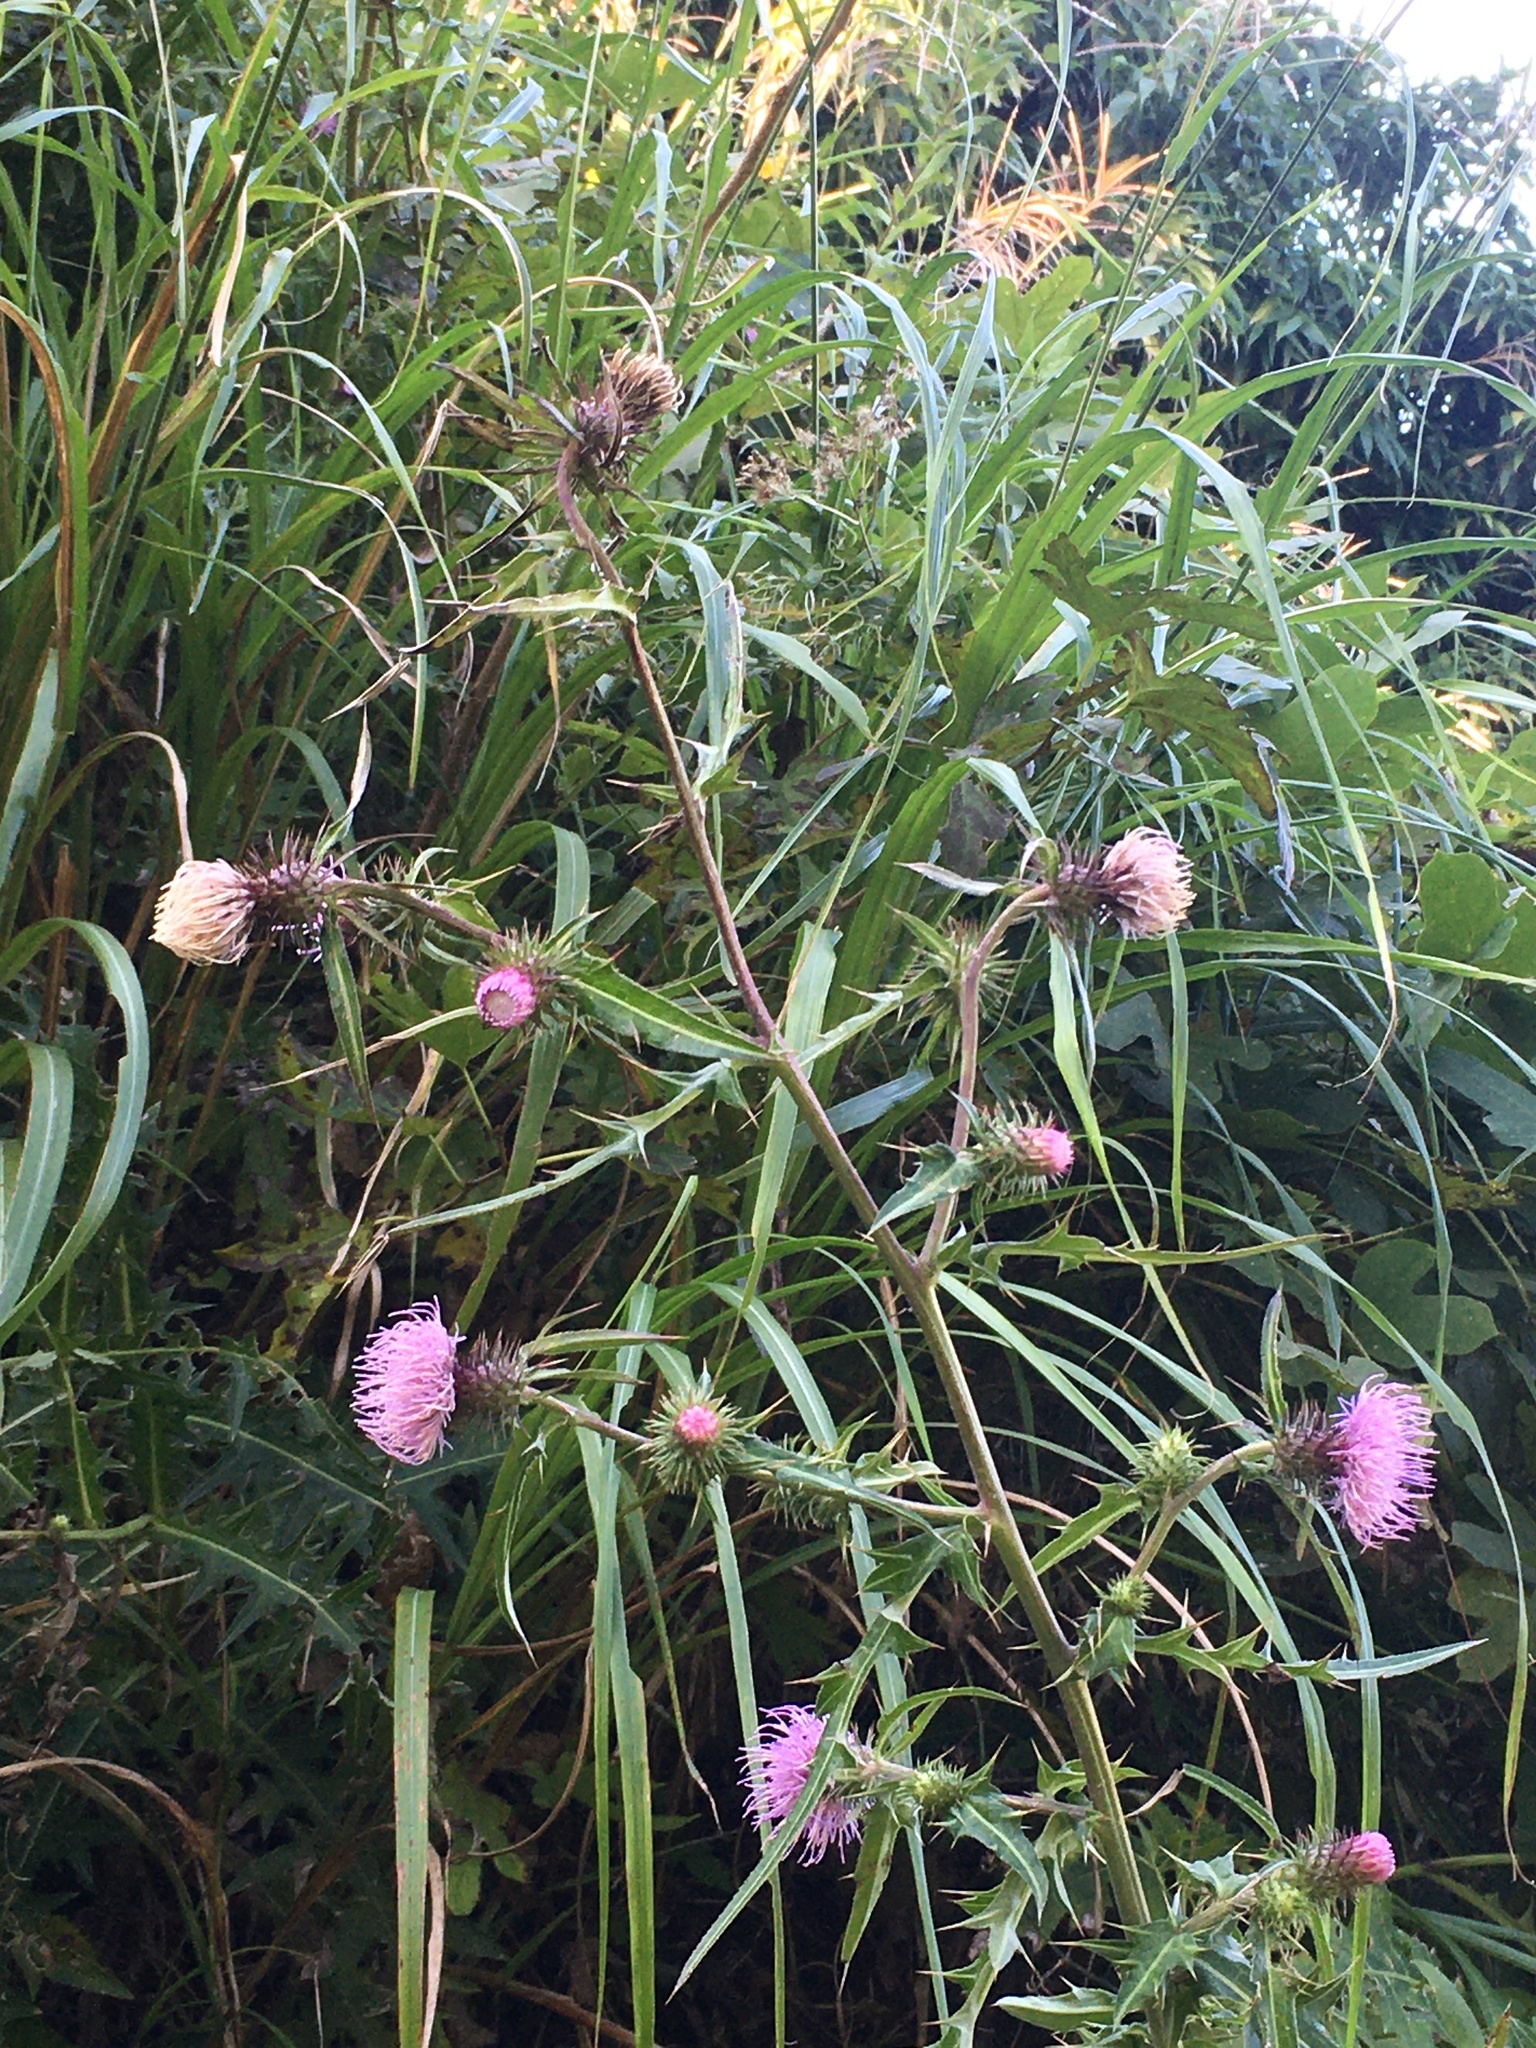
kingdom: Plantae
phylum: Tracheophyta
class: Magnoliopsida
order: Asterales
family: Asteraceae
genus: Cirsium
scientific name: Cirsium japonicum
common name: Japanese thistle
